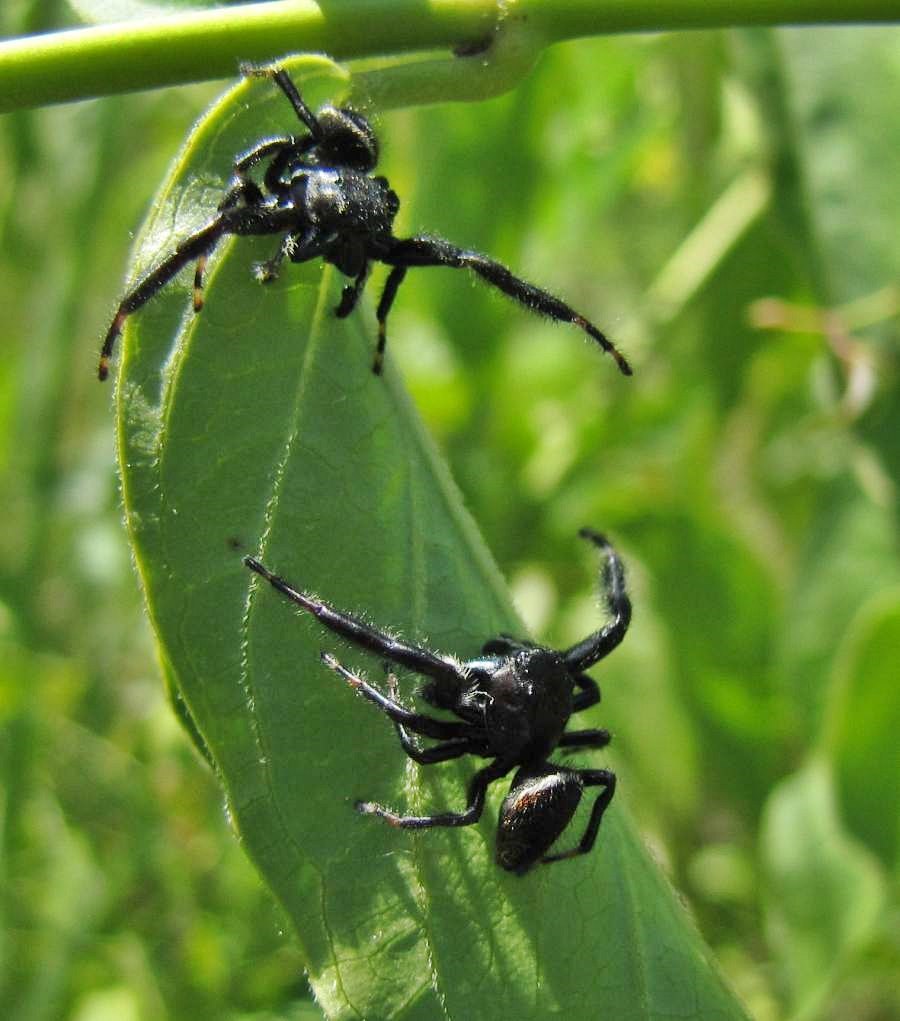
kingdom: Animalia
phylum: Arthropoda
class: Arachnida
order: Araneae
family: Salticidae
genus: Phidippus
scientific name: Phidippus clarus
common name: Brilliant jumping spider
